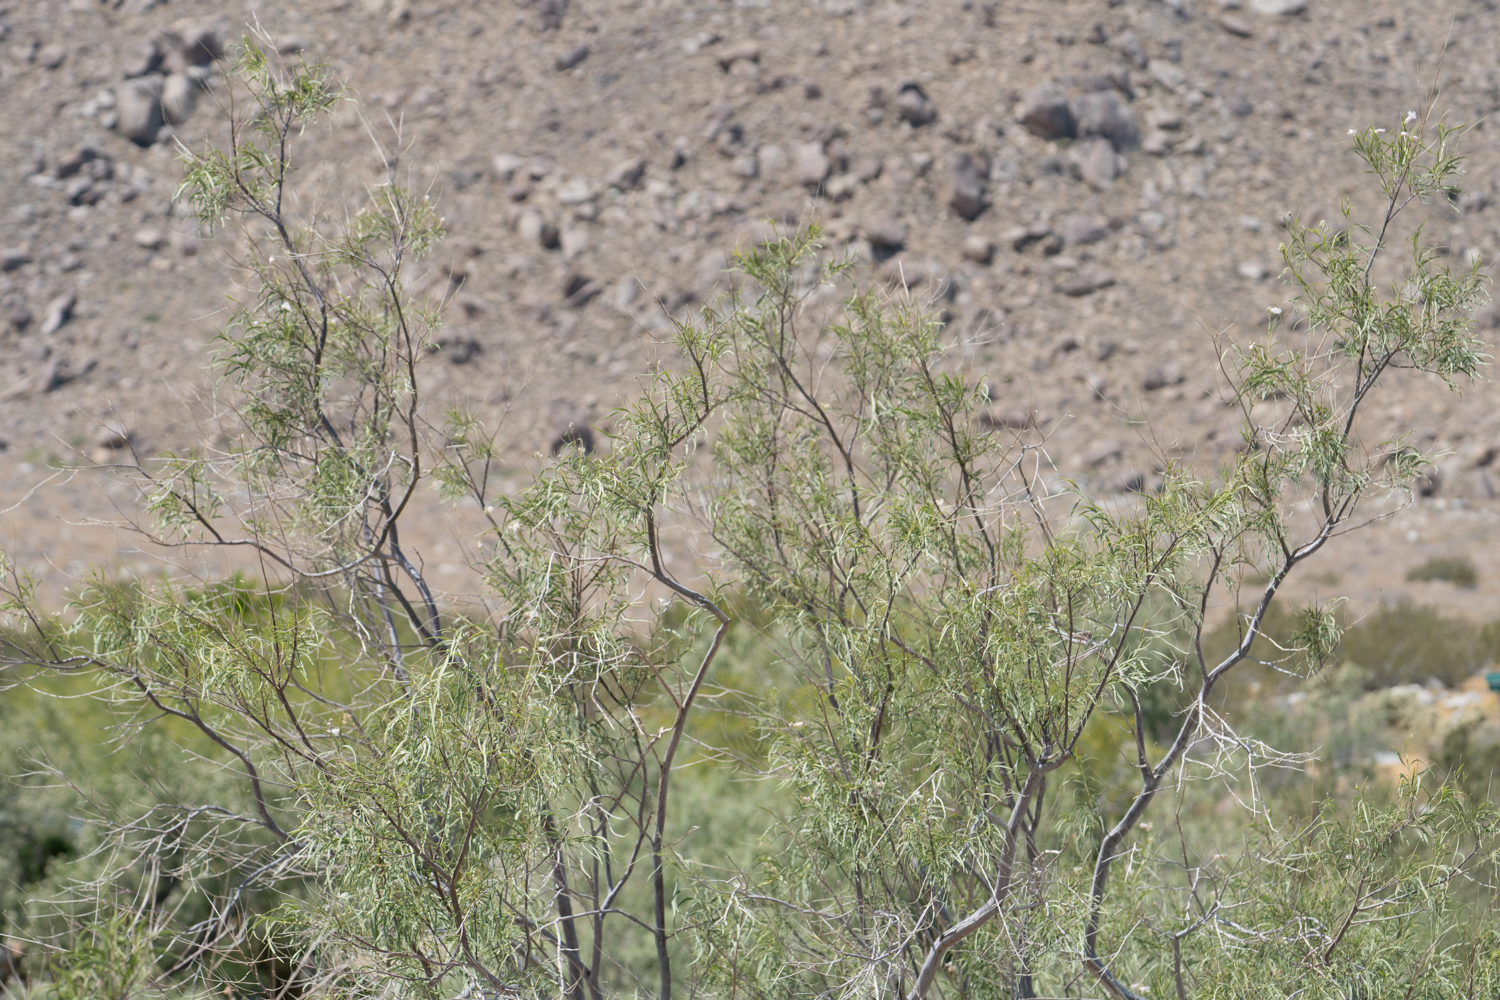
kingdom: Plantae
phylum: Tracheophyta
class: Magnoliopsida
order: Lamiales
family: Bignoniaceae
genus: Chilopsis
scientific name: Chilopsis linearis
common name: Desert-willow
